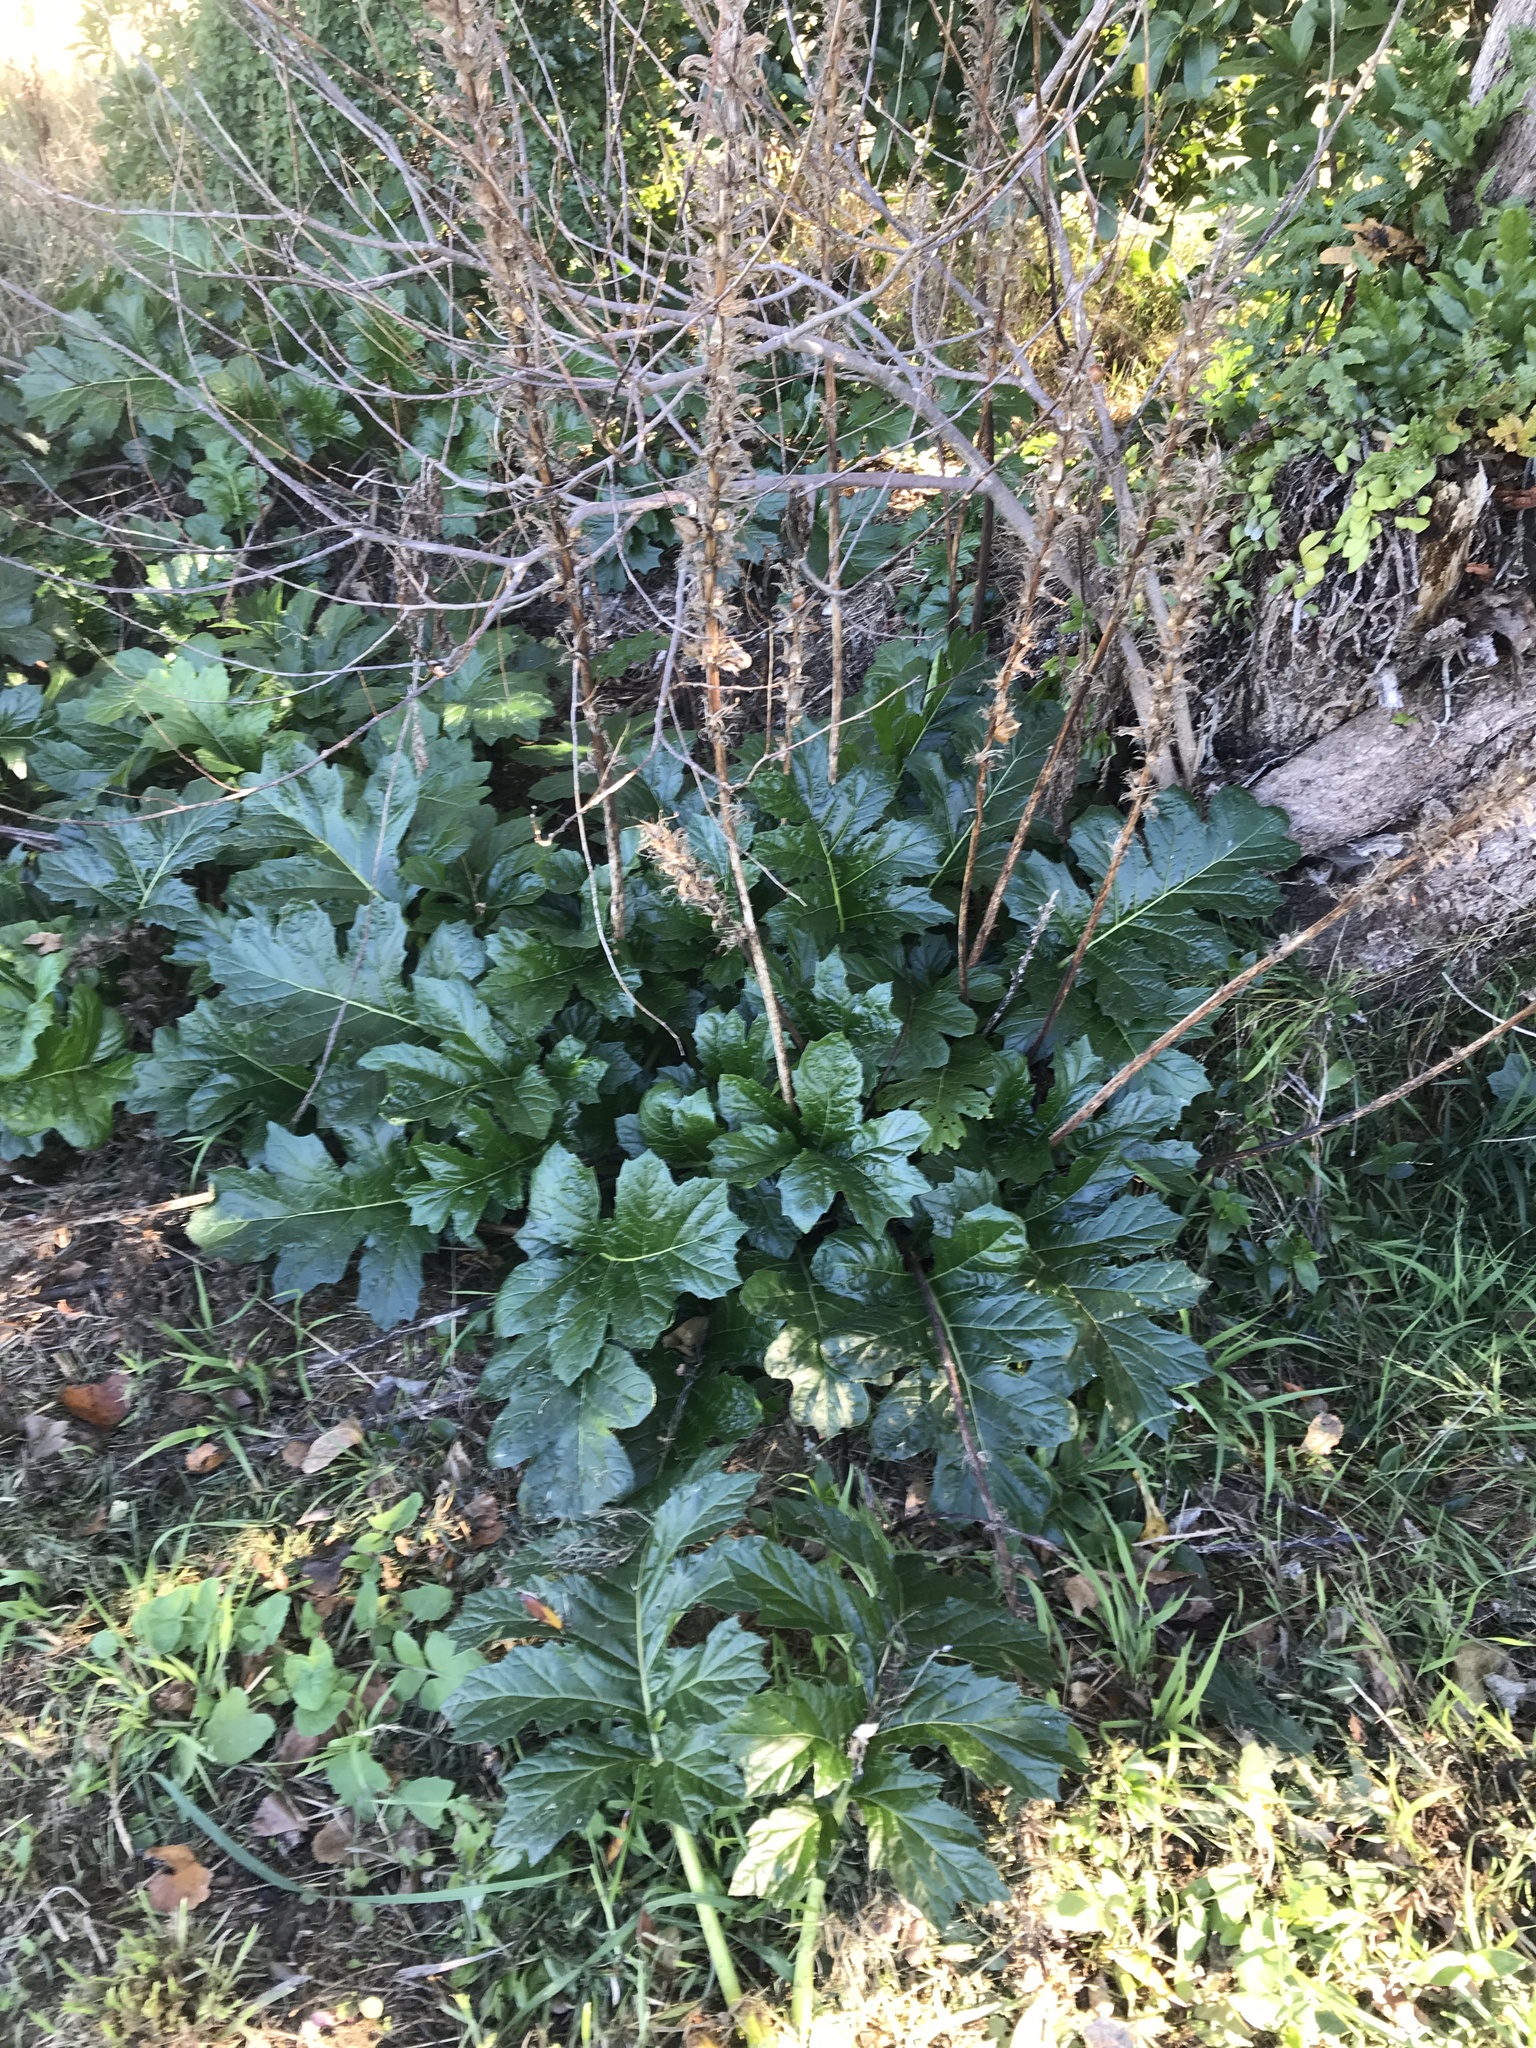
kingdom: Plantae
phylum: Tracheophyta
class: Magnoliopsida
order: Lamiales
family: Acanthaceae
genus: Acanthus
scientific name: Acanthus mollis
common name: Bear's-breech
